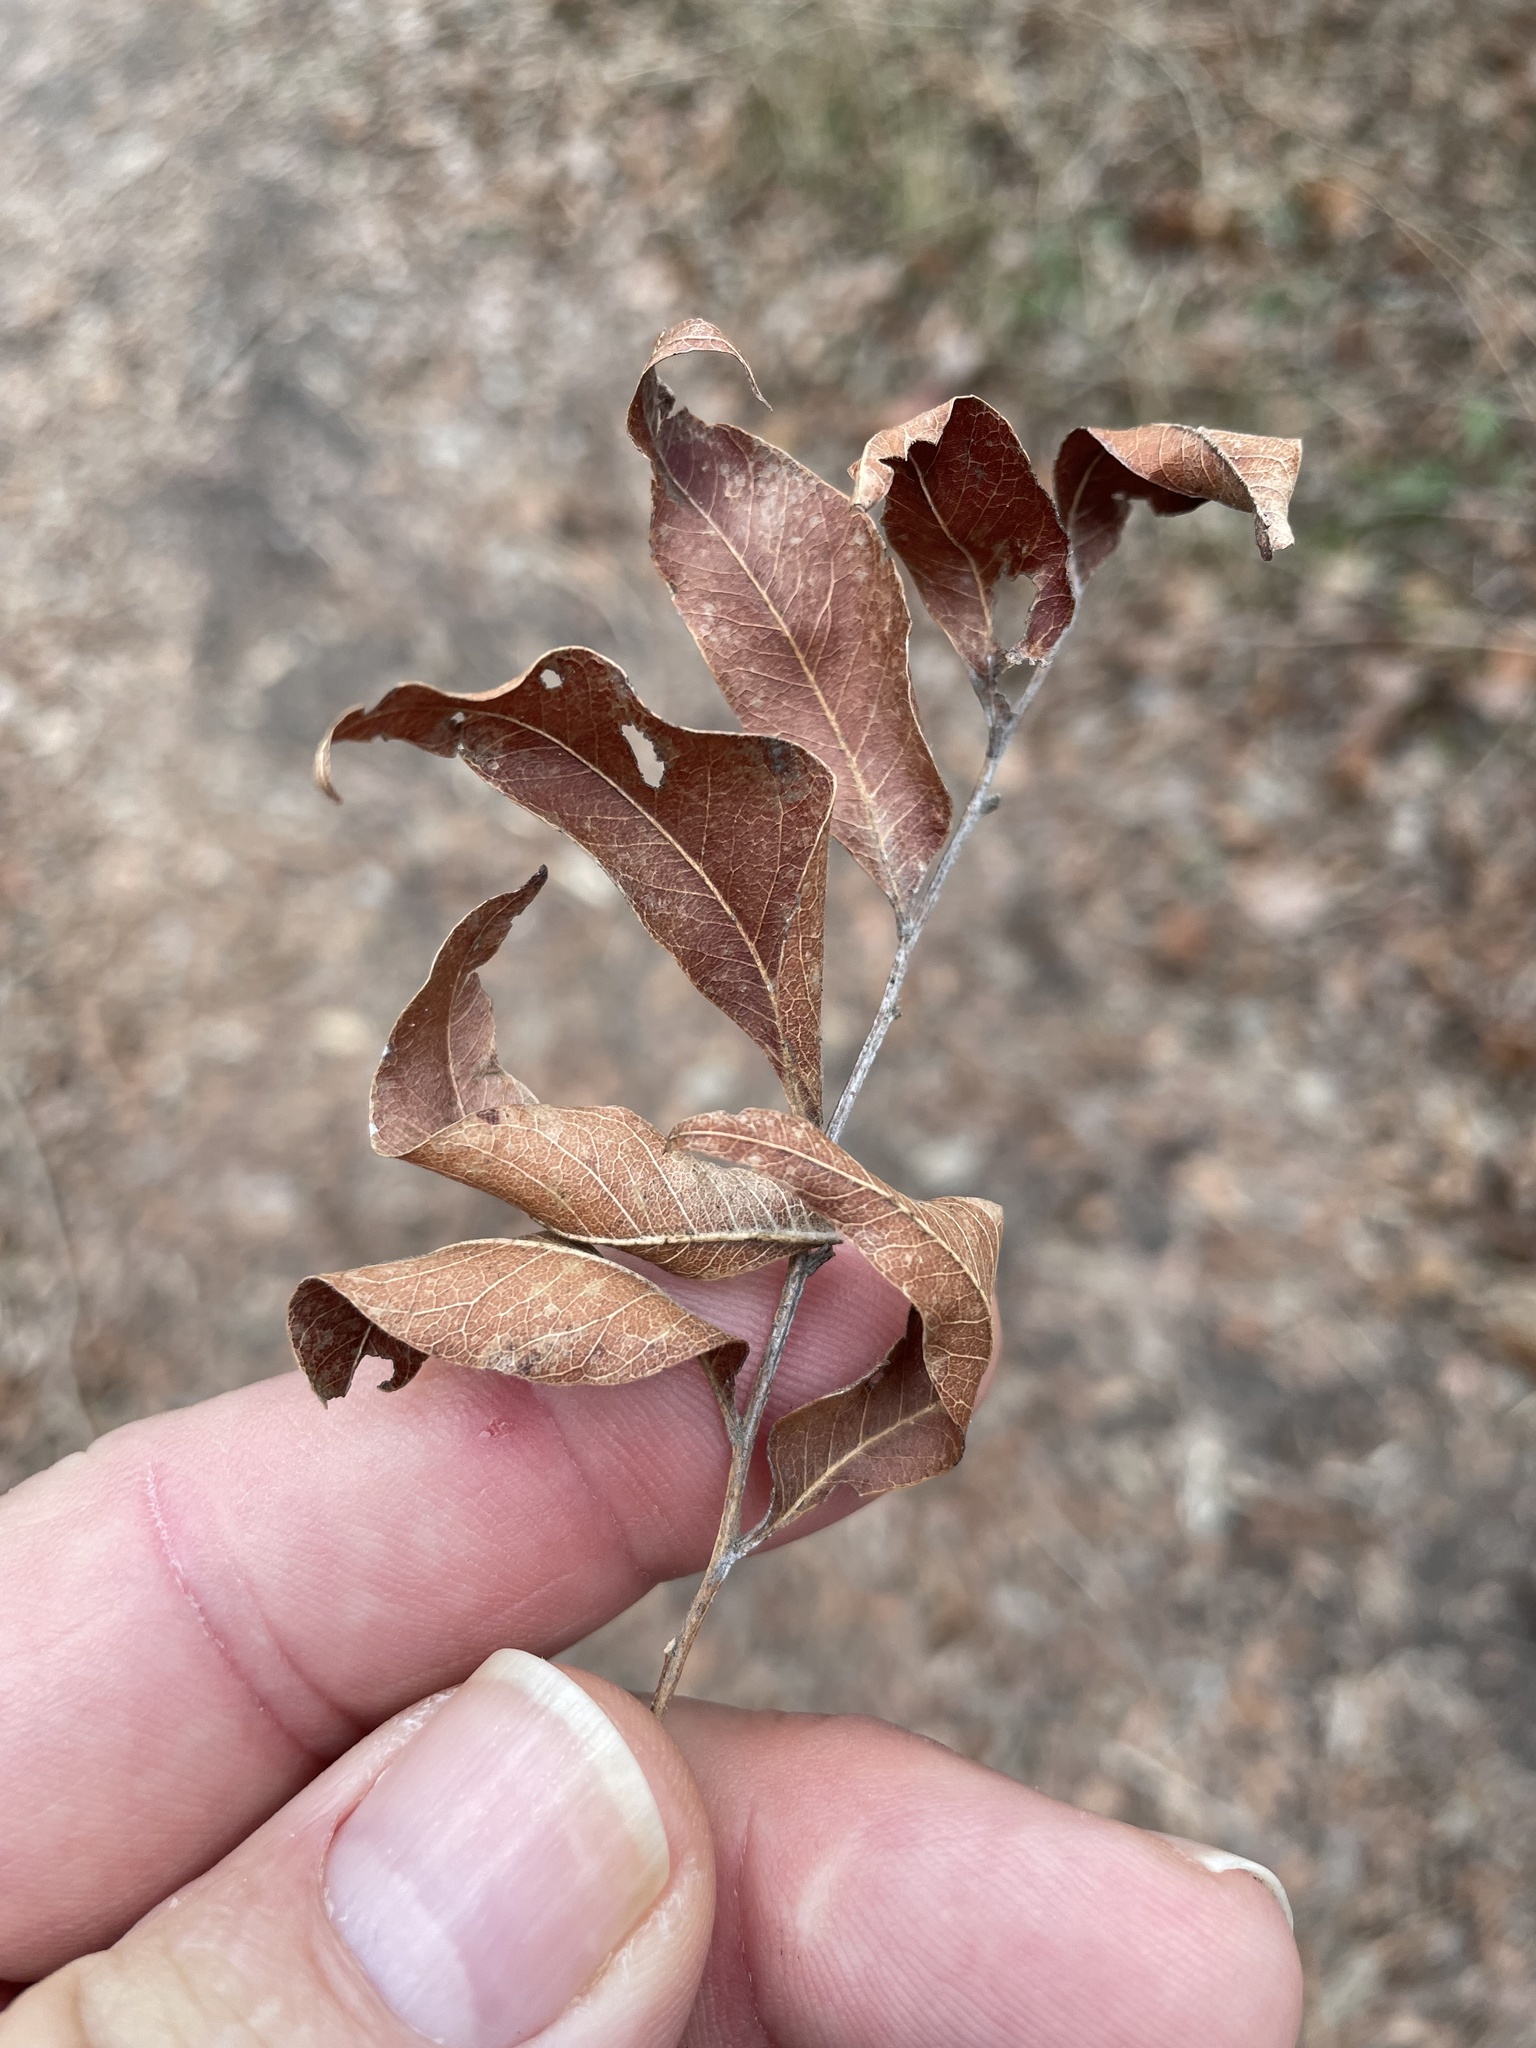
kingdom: Plantae
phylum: Tracheophyta
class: Magnoliopsida
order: Sapindales
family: Sapindaceae
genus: Sapindus
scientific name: Sapindus drummondii
